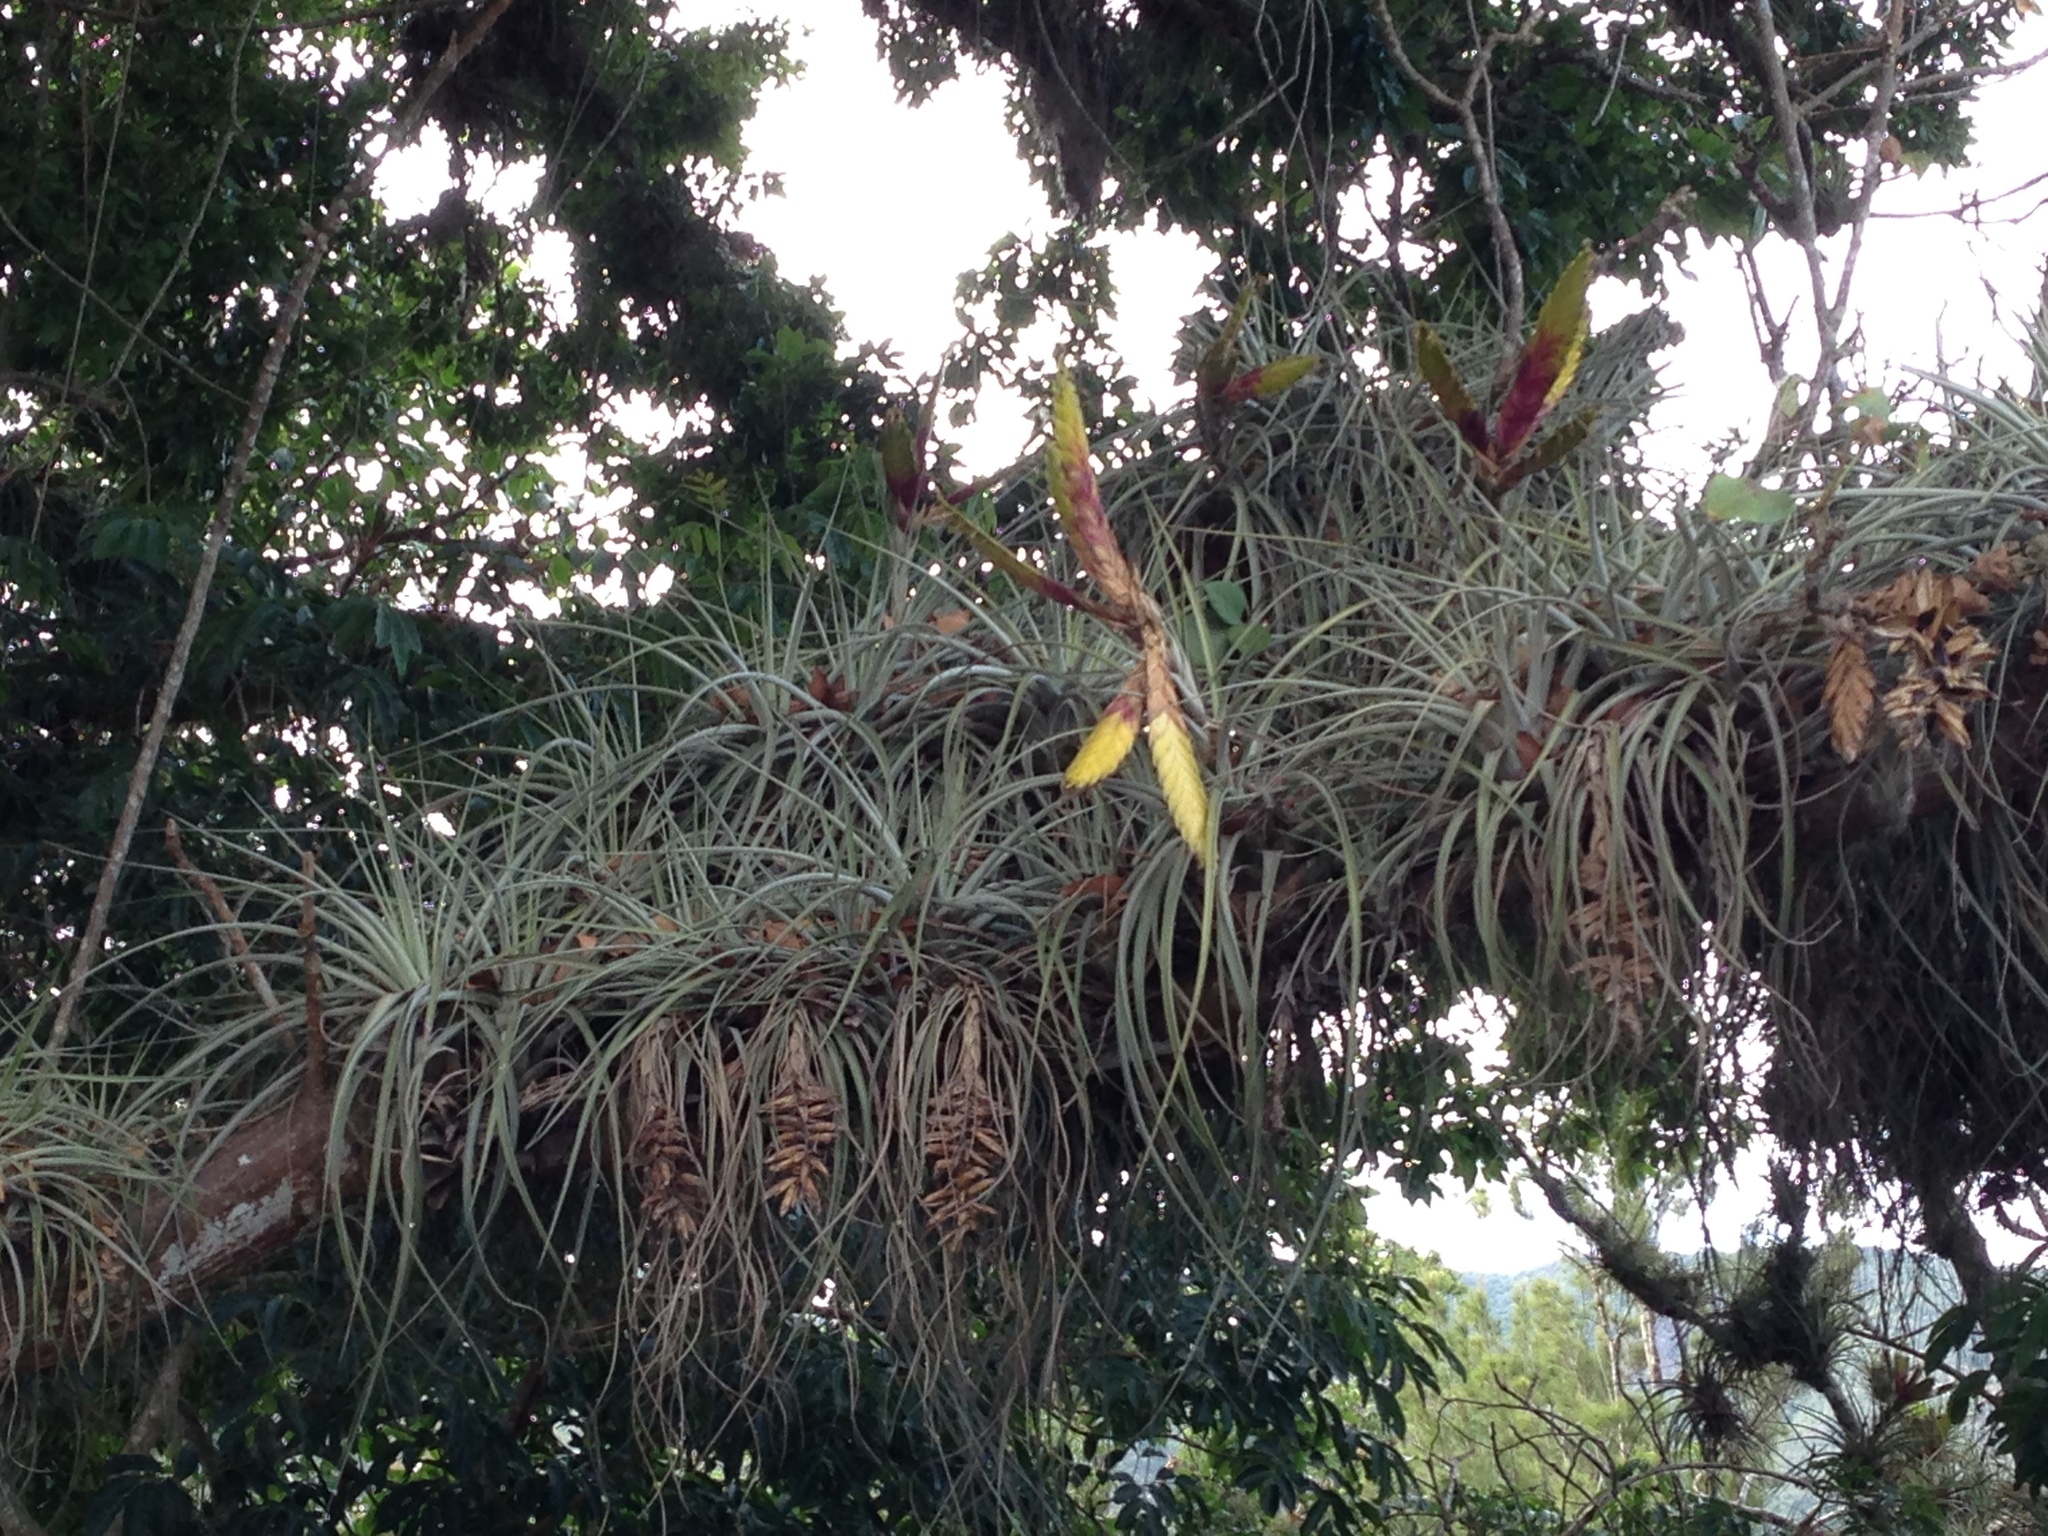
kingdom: Plantae
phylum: Tracheophyta
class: Liliopsida
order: Poales
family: Bromeliaceae
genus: Tillandsia
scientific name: Tillandsia fasciculata
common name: Giant airplant
